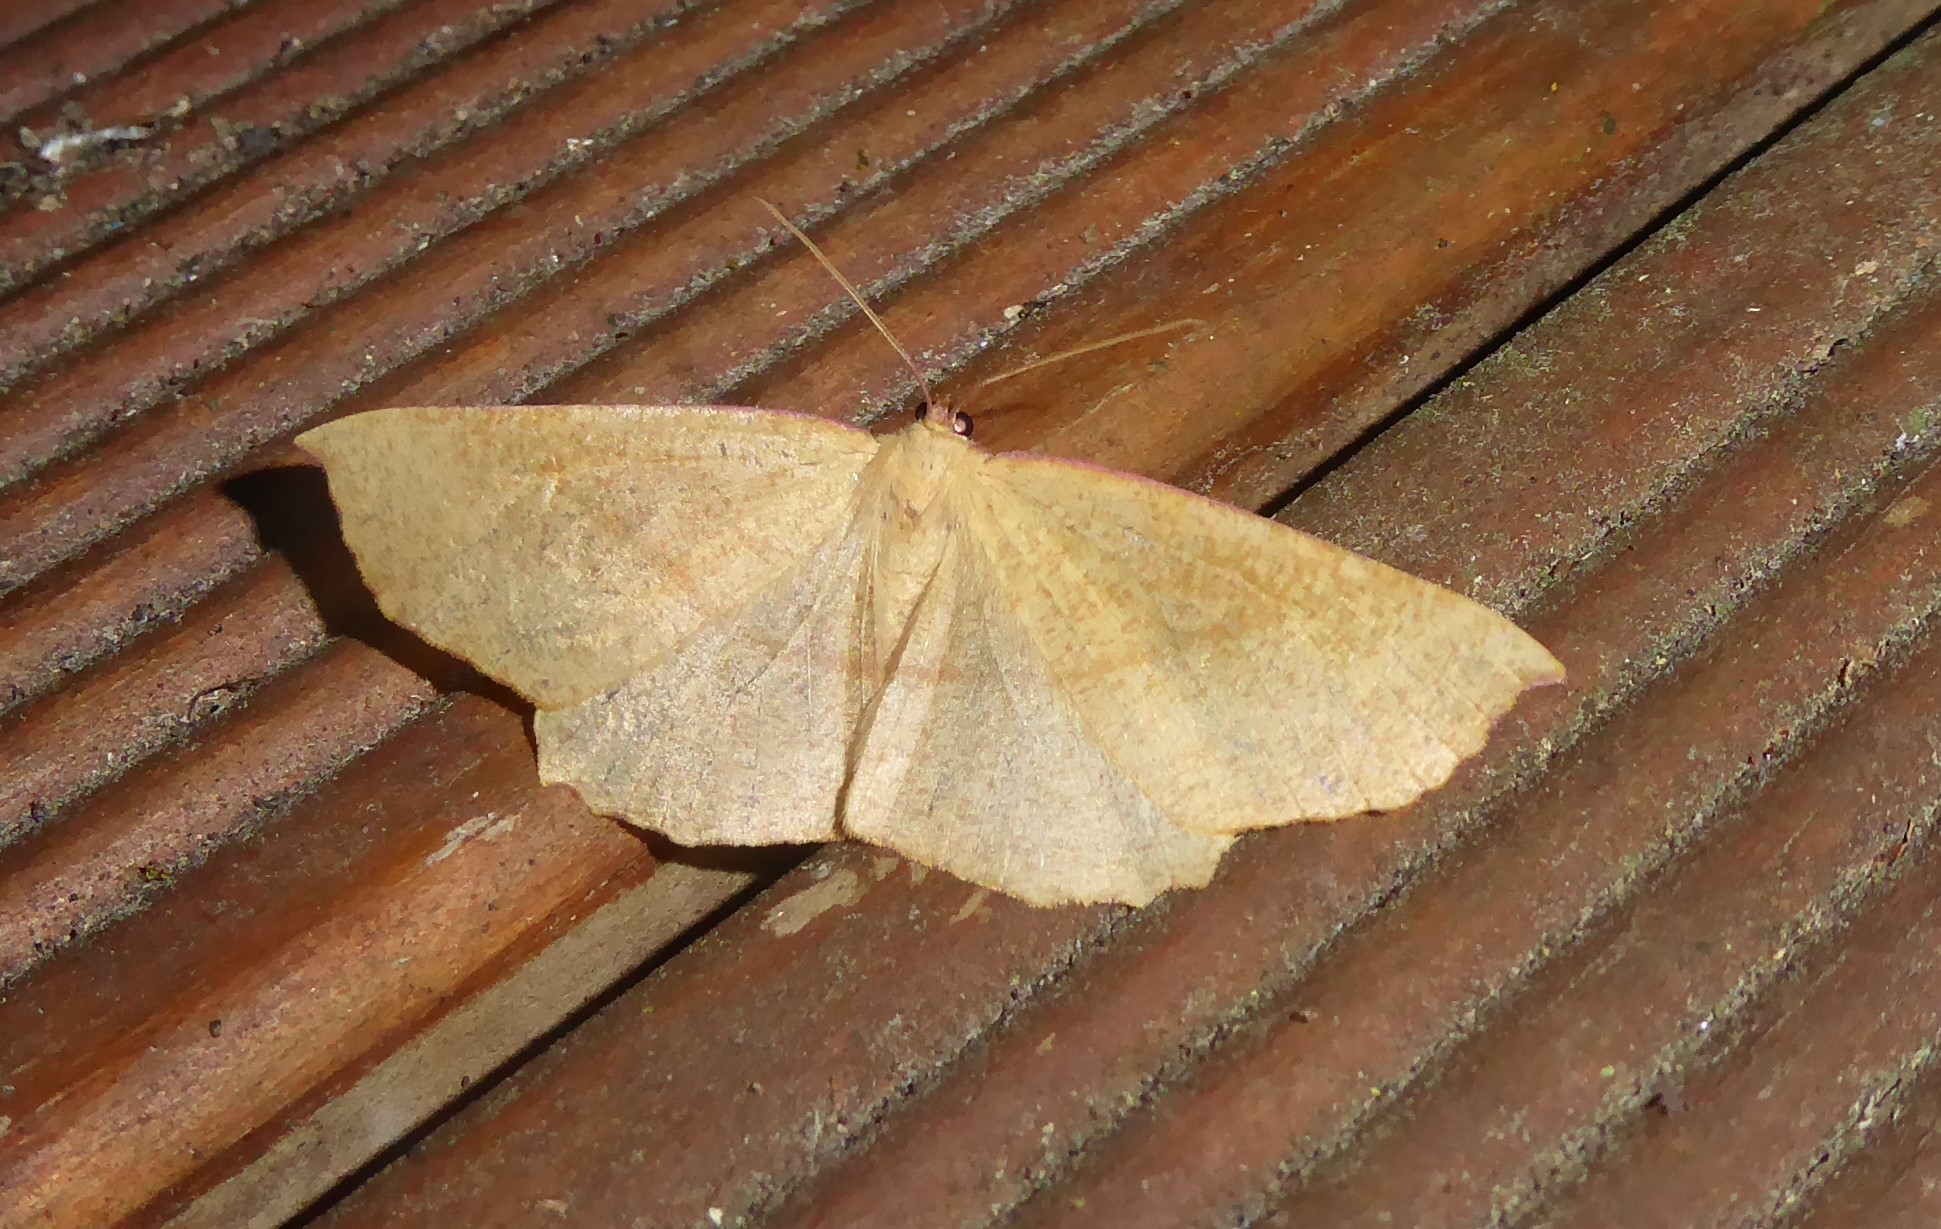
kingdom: Animalia
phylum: Arthropoda
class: Insecta
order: Lepidoptera
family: Geometridae
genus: Xyridacma
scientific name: Xyridacma alectoraria
